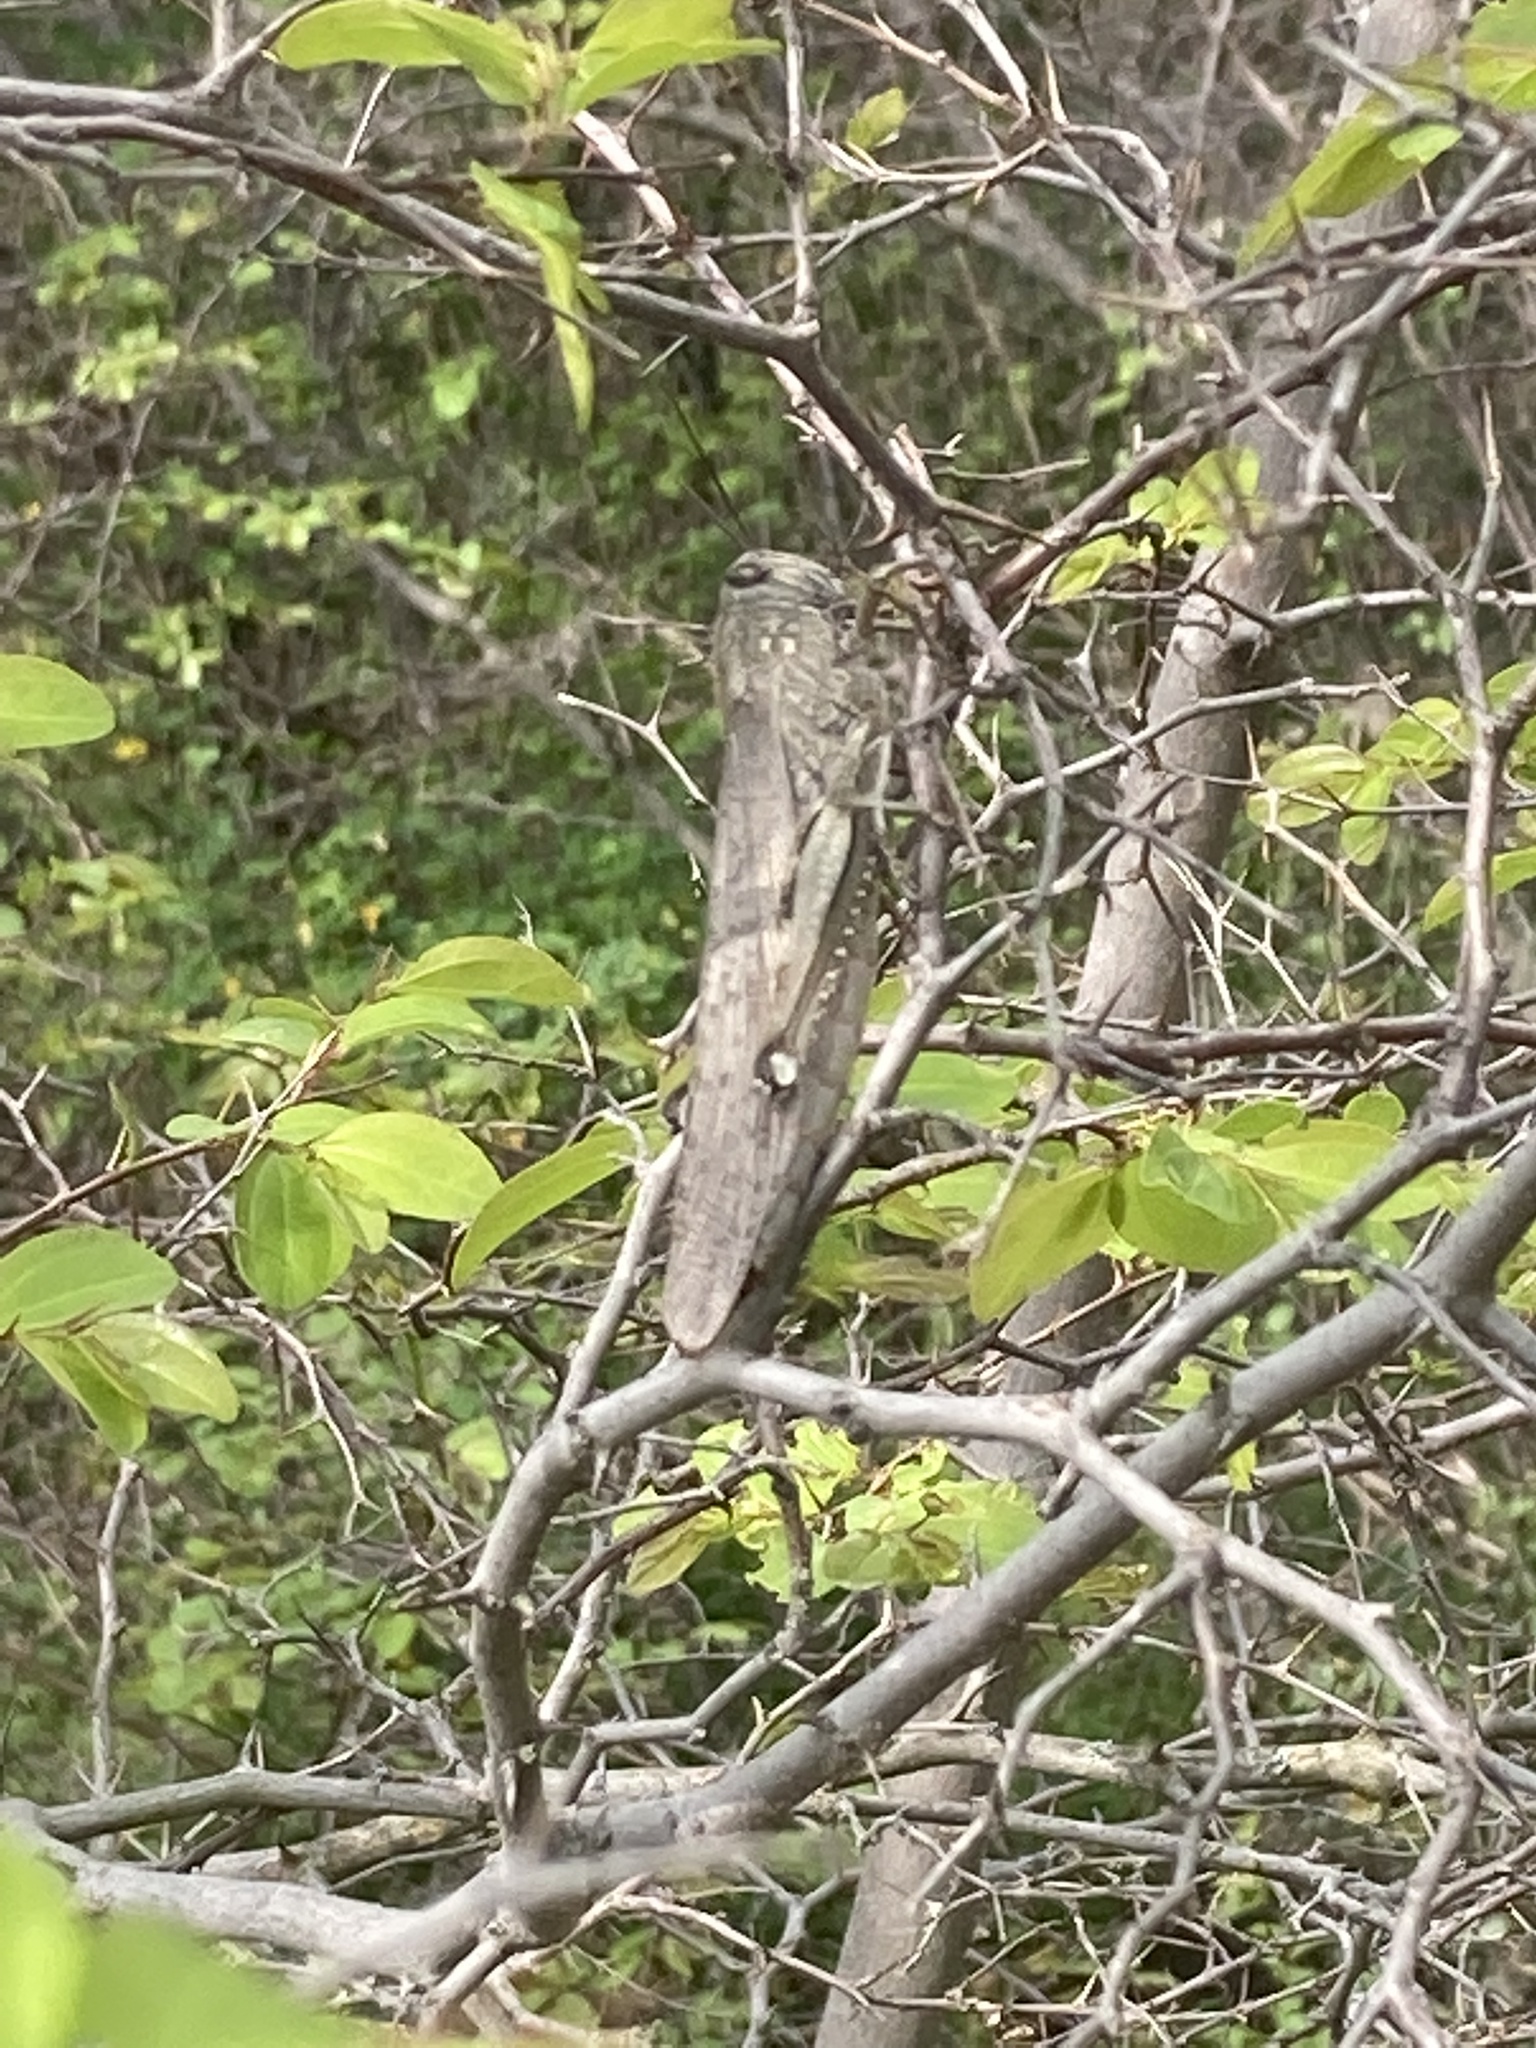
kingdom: Animalia
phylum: Arthropoda
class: Insecta
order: Orthoptera
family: Acrididae
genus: Anacridium
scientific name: Anacridium aegyptium
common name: Egyptian grasshopper
